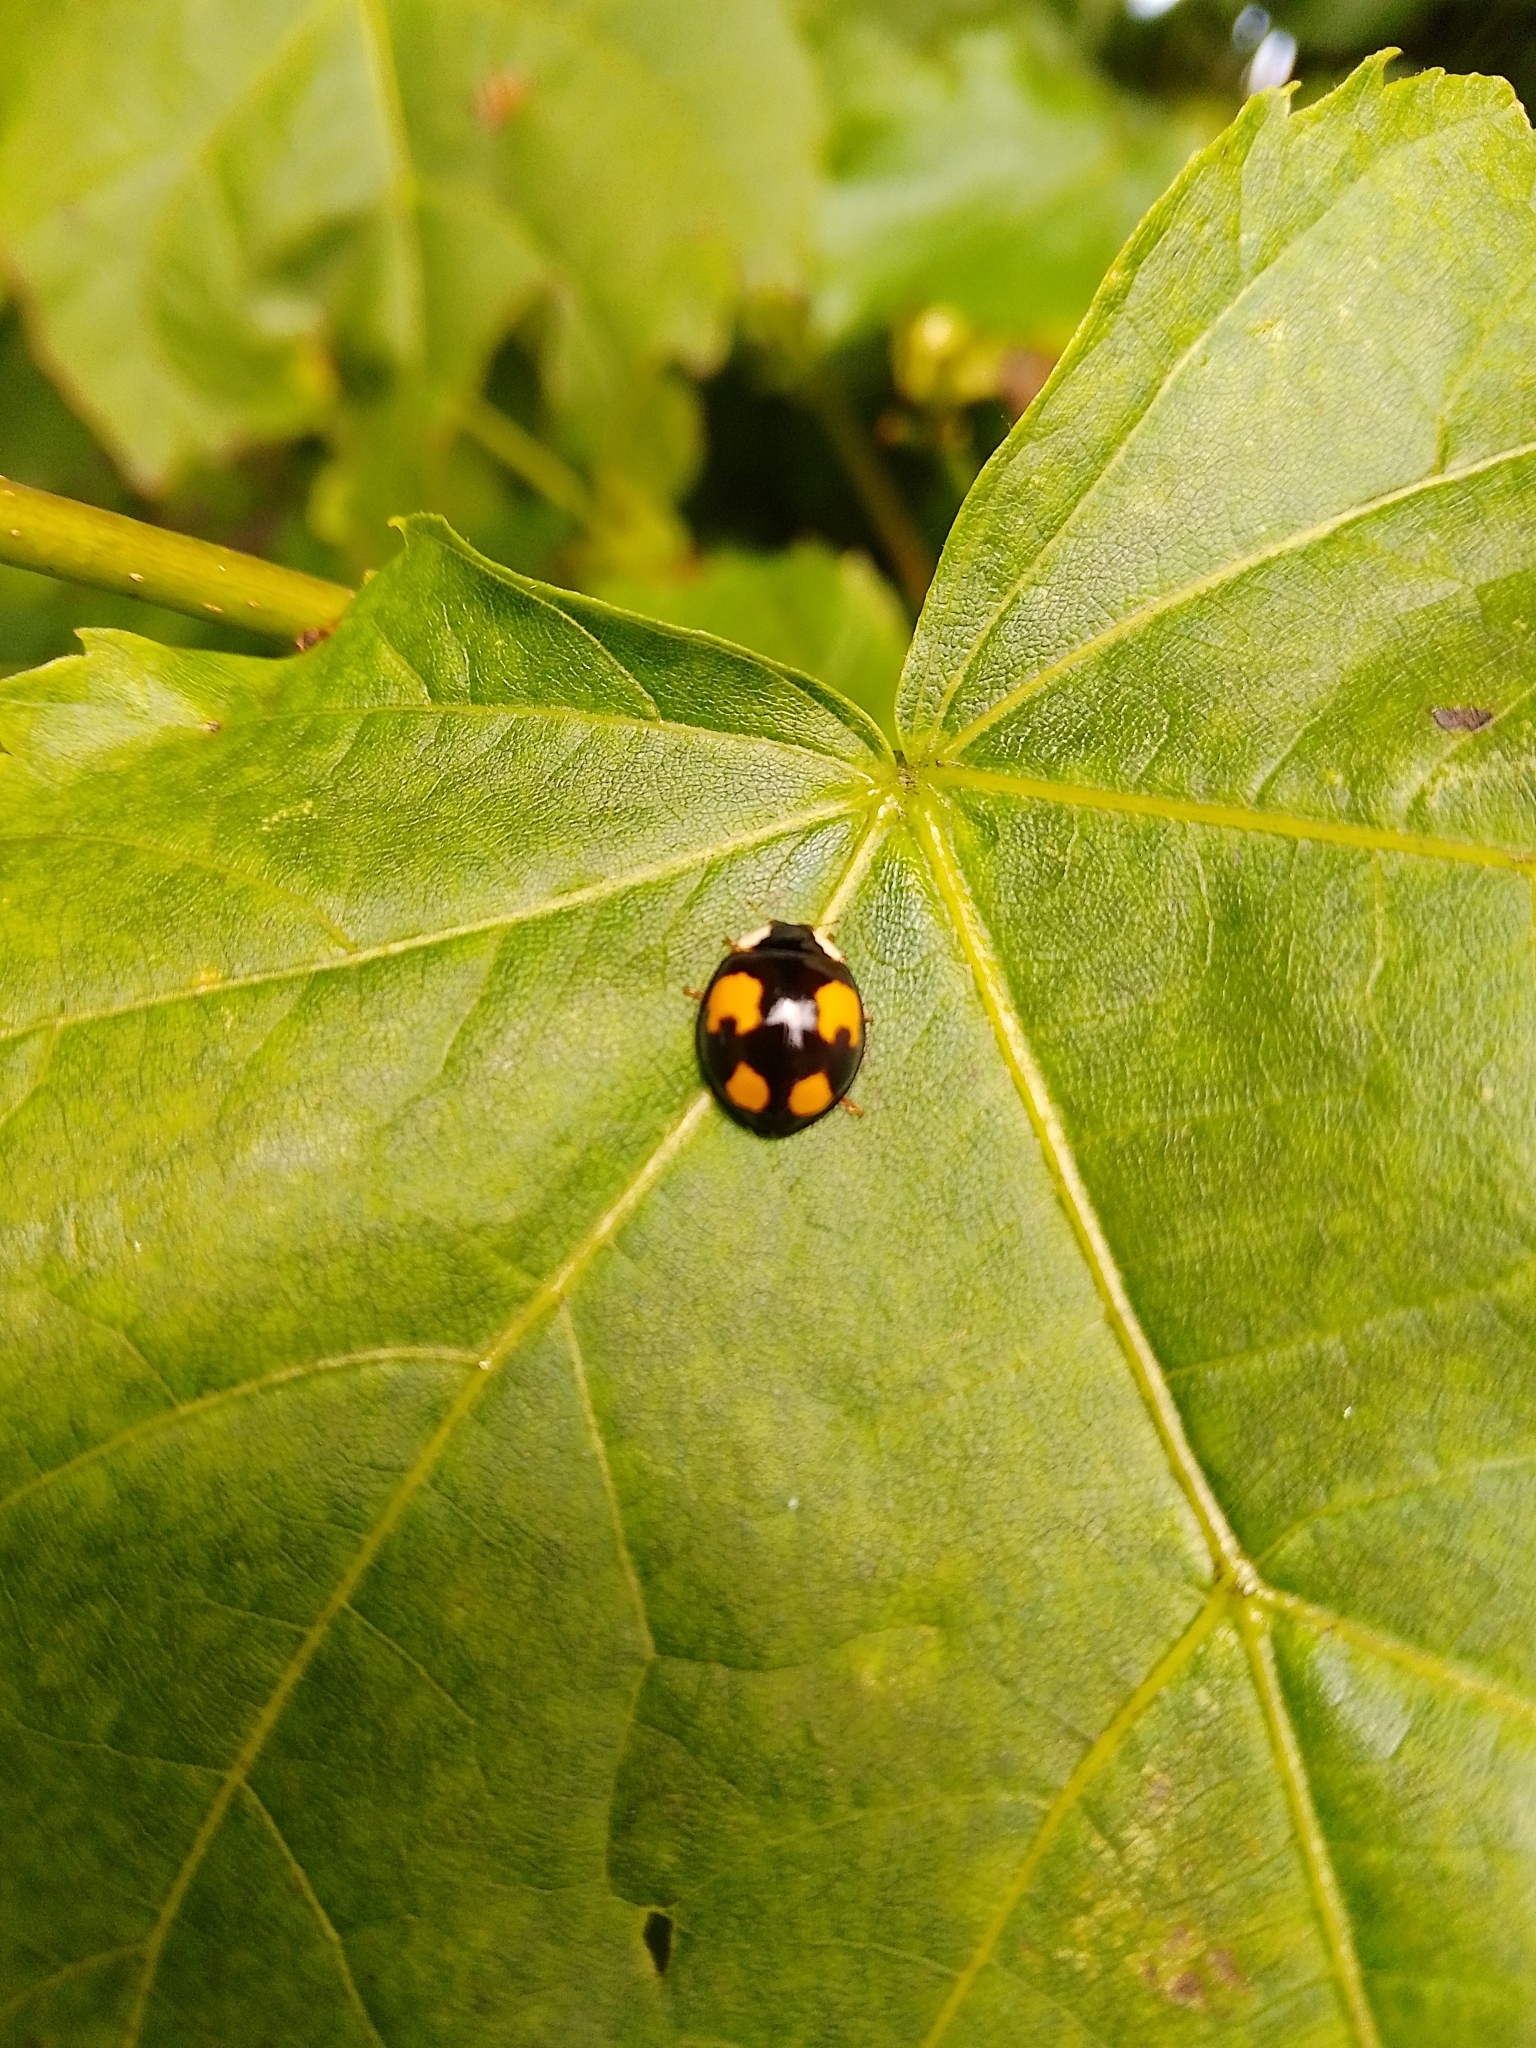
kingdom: Animalia
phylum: Arthropoda
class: Insecta
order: Coleoptera
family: Coccinellidae
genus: Harmonia
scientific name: Harmonia axyridis
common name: Harlequin ladybird
